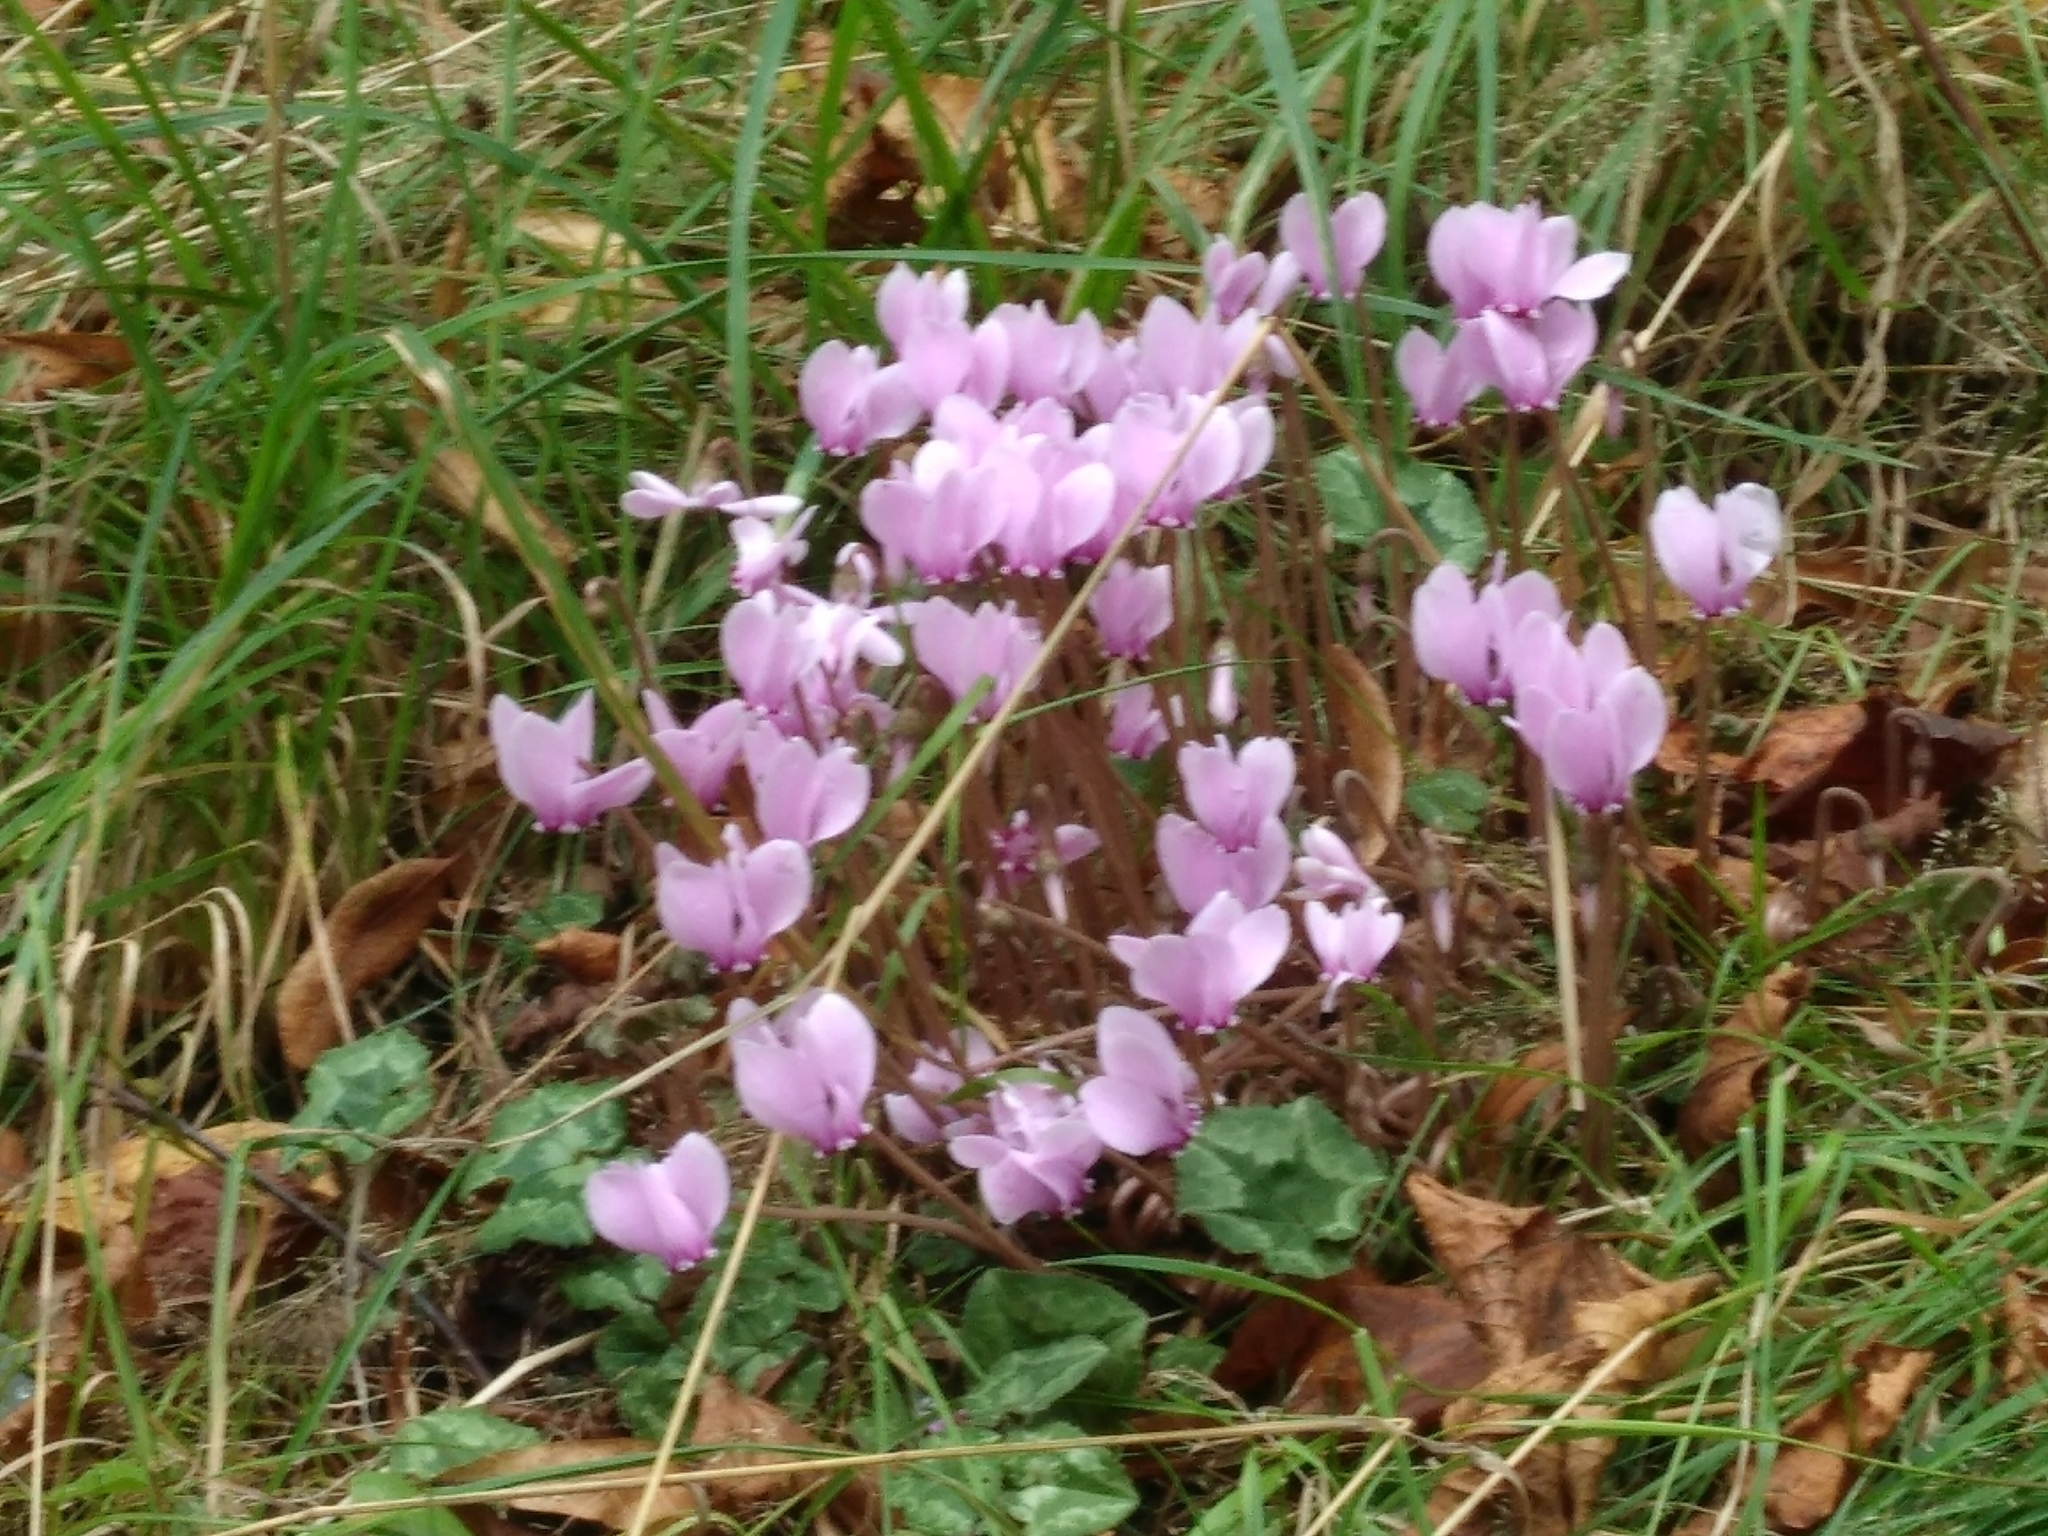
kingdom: Plantae
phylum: Tracheophyta
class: Magnoliopsida
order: Ericales
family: Primulaceae
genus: Cyclamen
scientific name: Cyclamen hederifolium
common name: Sowbread
